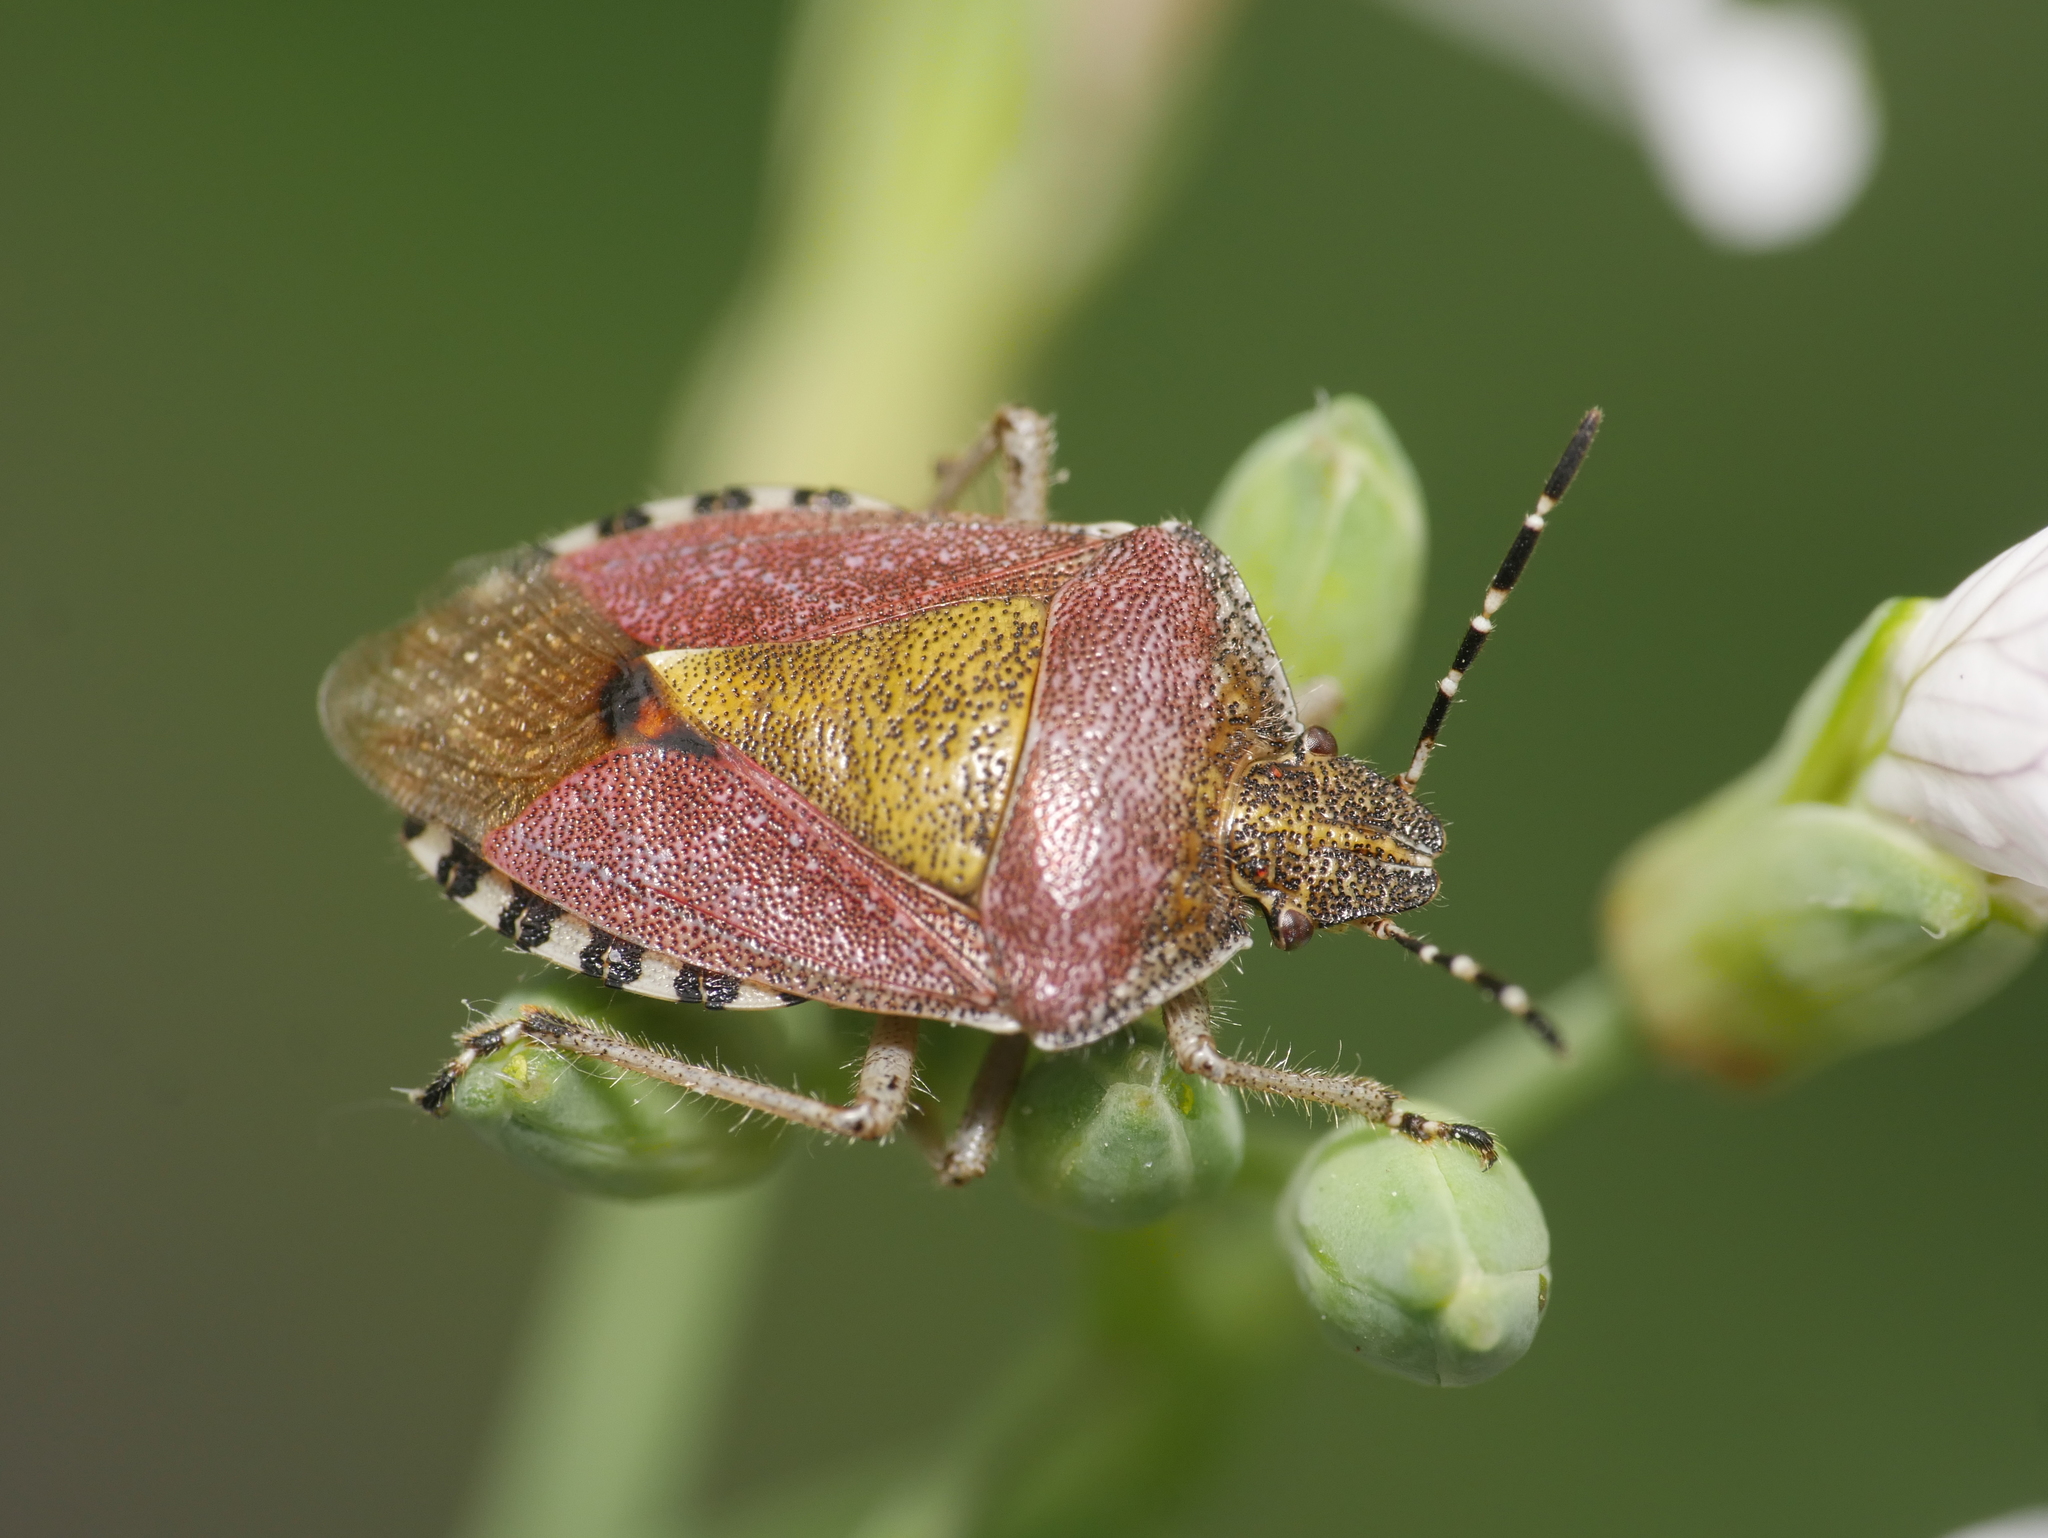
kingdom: Animalia
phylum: Arthropoda
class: Insecta
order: Hemiptera
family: Pentatomidae
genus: Dolycoris
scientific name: Dolycoris baccarum
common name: Sloe bug
